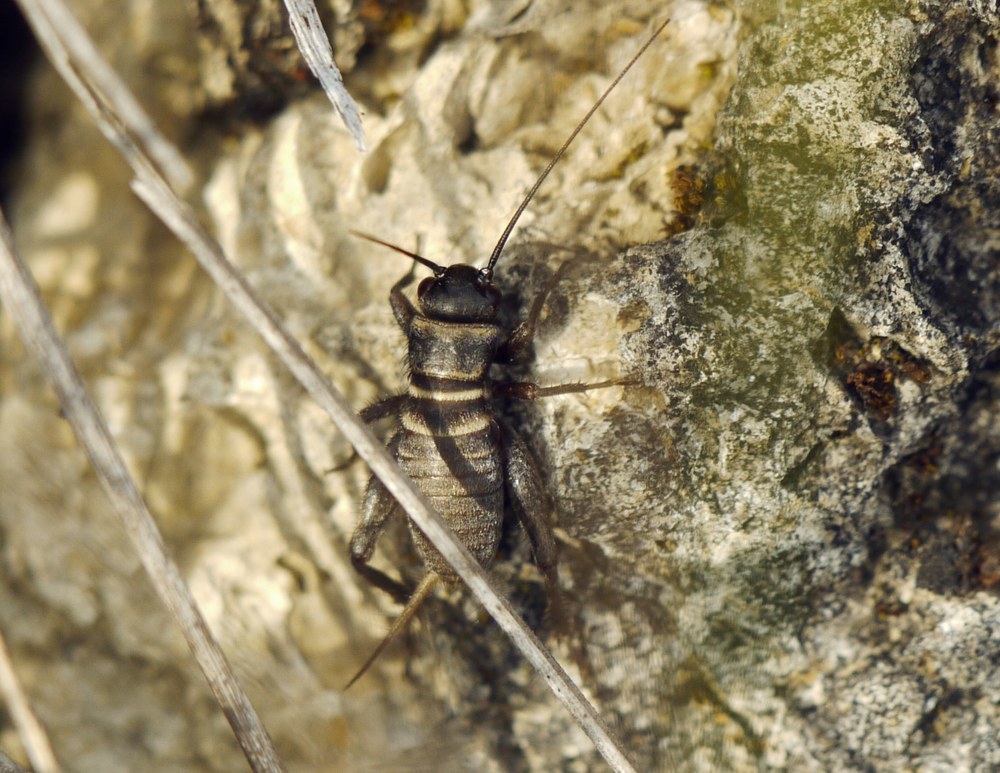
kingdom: Animalia
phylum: Arthropoda
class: Insecta
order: Orthoptera
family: Gryllidae
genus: Melanogryllus
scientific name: Melanogryllus desertus
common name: Desert cricket
